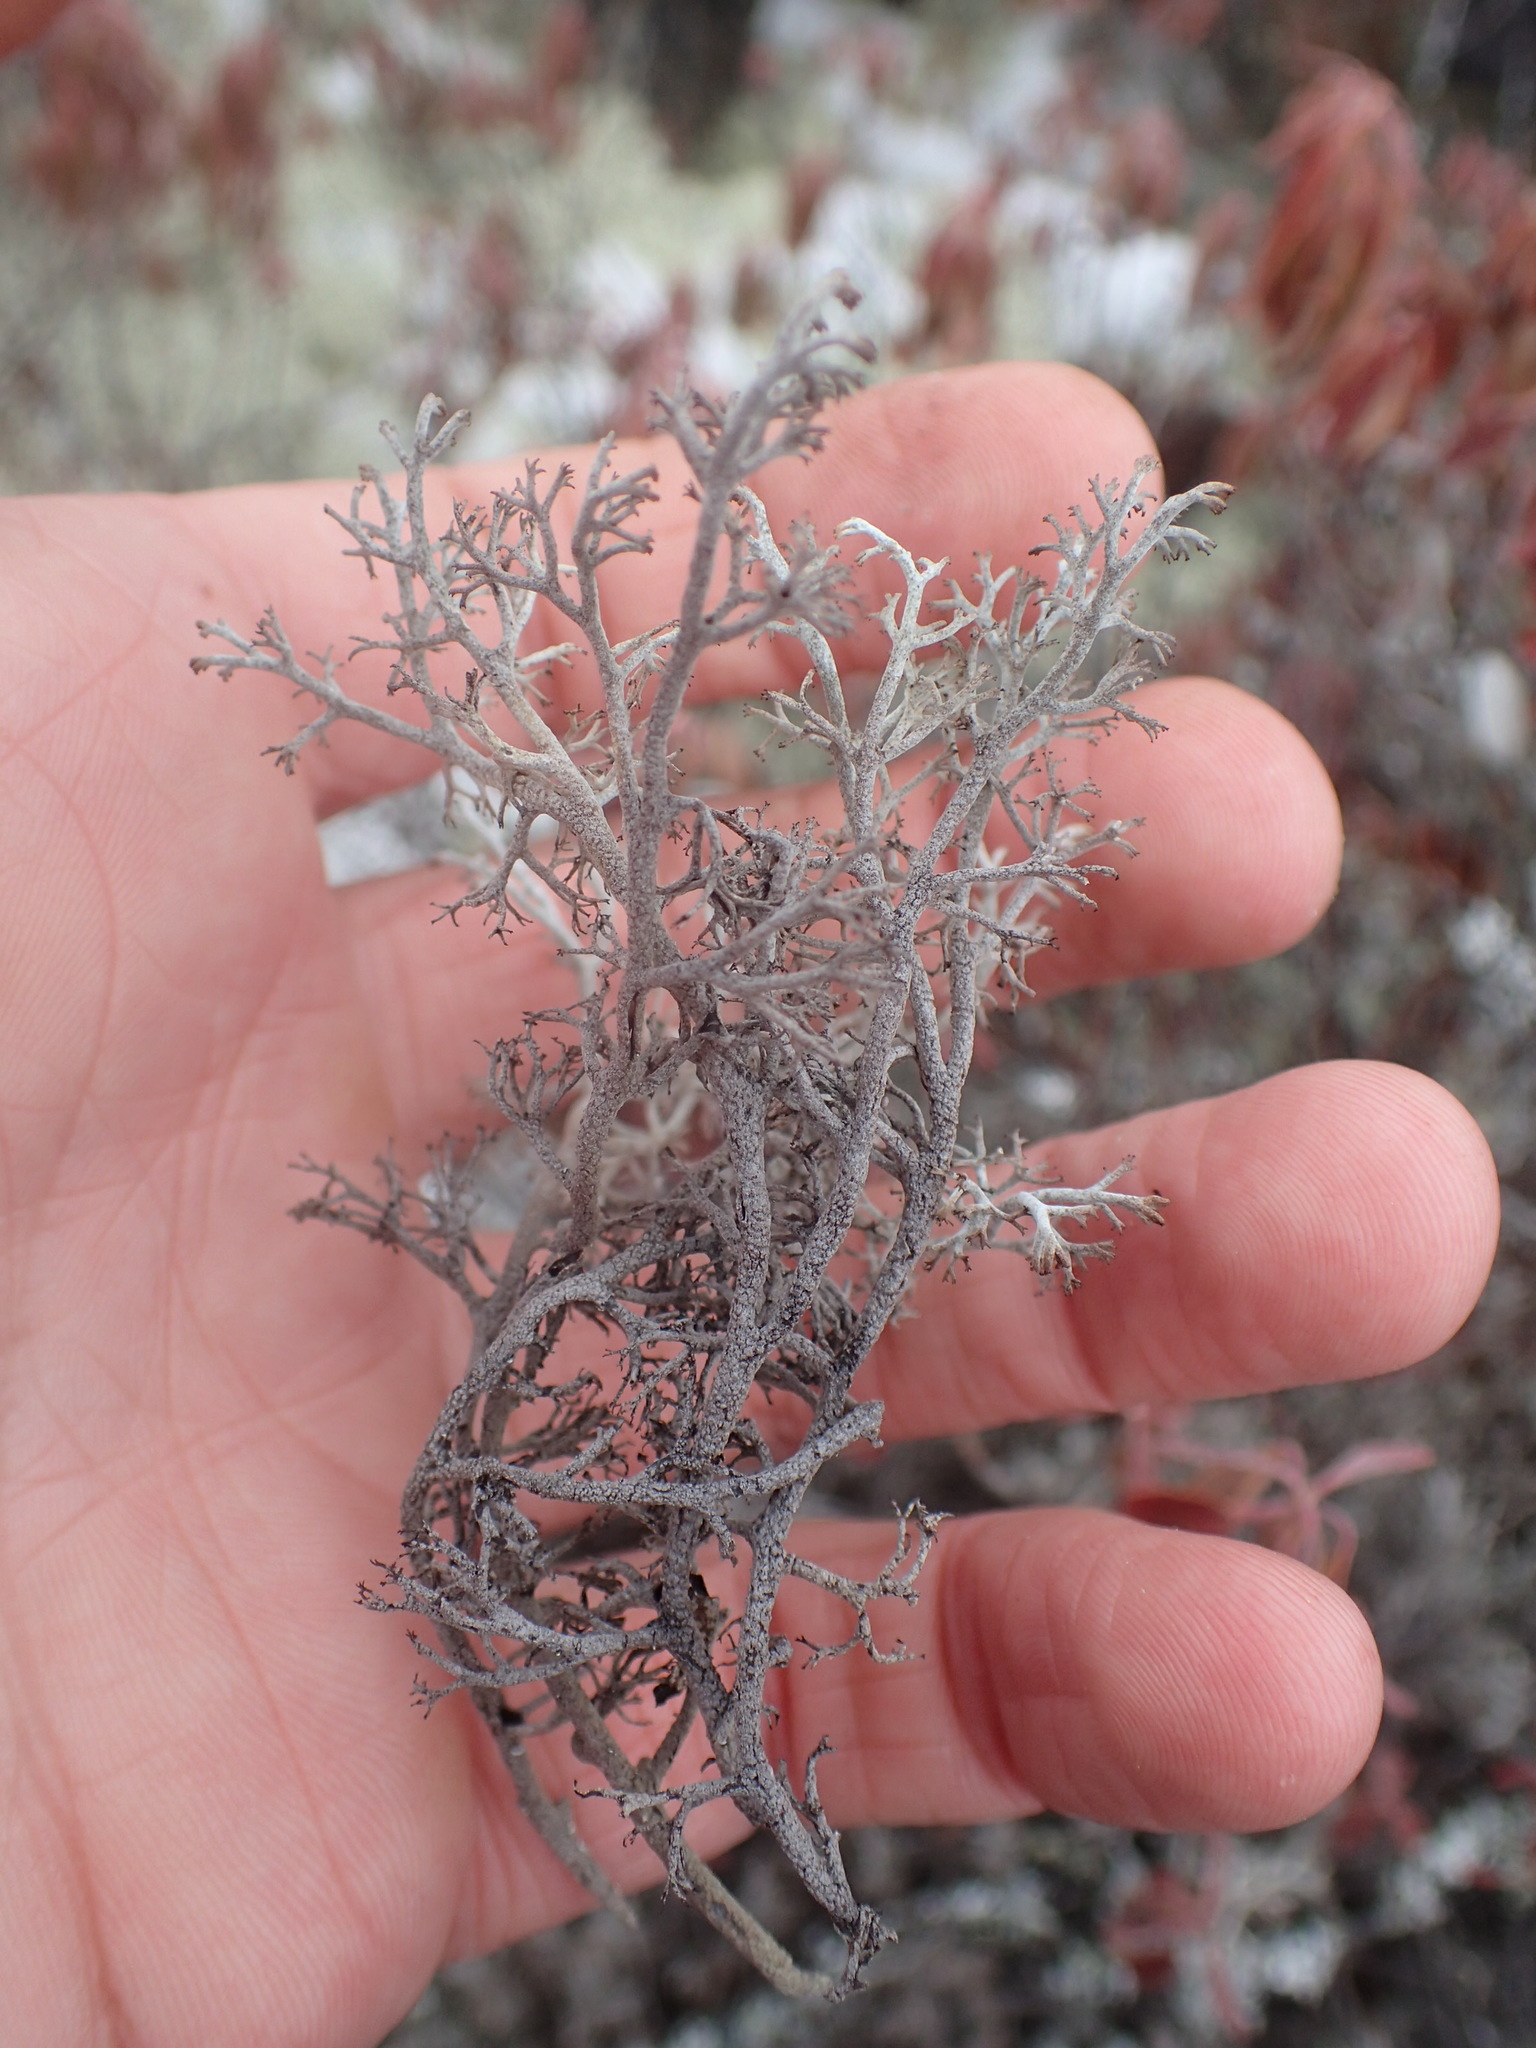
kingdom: Fungi
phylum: Ascomycota
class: Lecanoromycetes
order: Lecanorales
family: Cladoniaceae
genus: Cladonia
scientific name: Cladonia stygia
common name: Black-footed reindeer lichen
